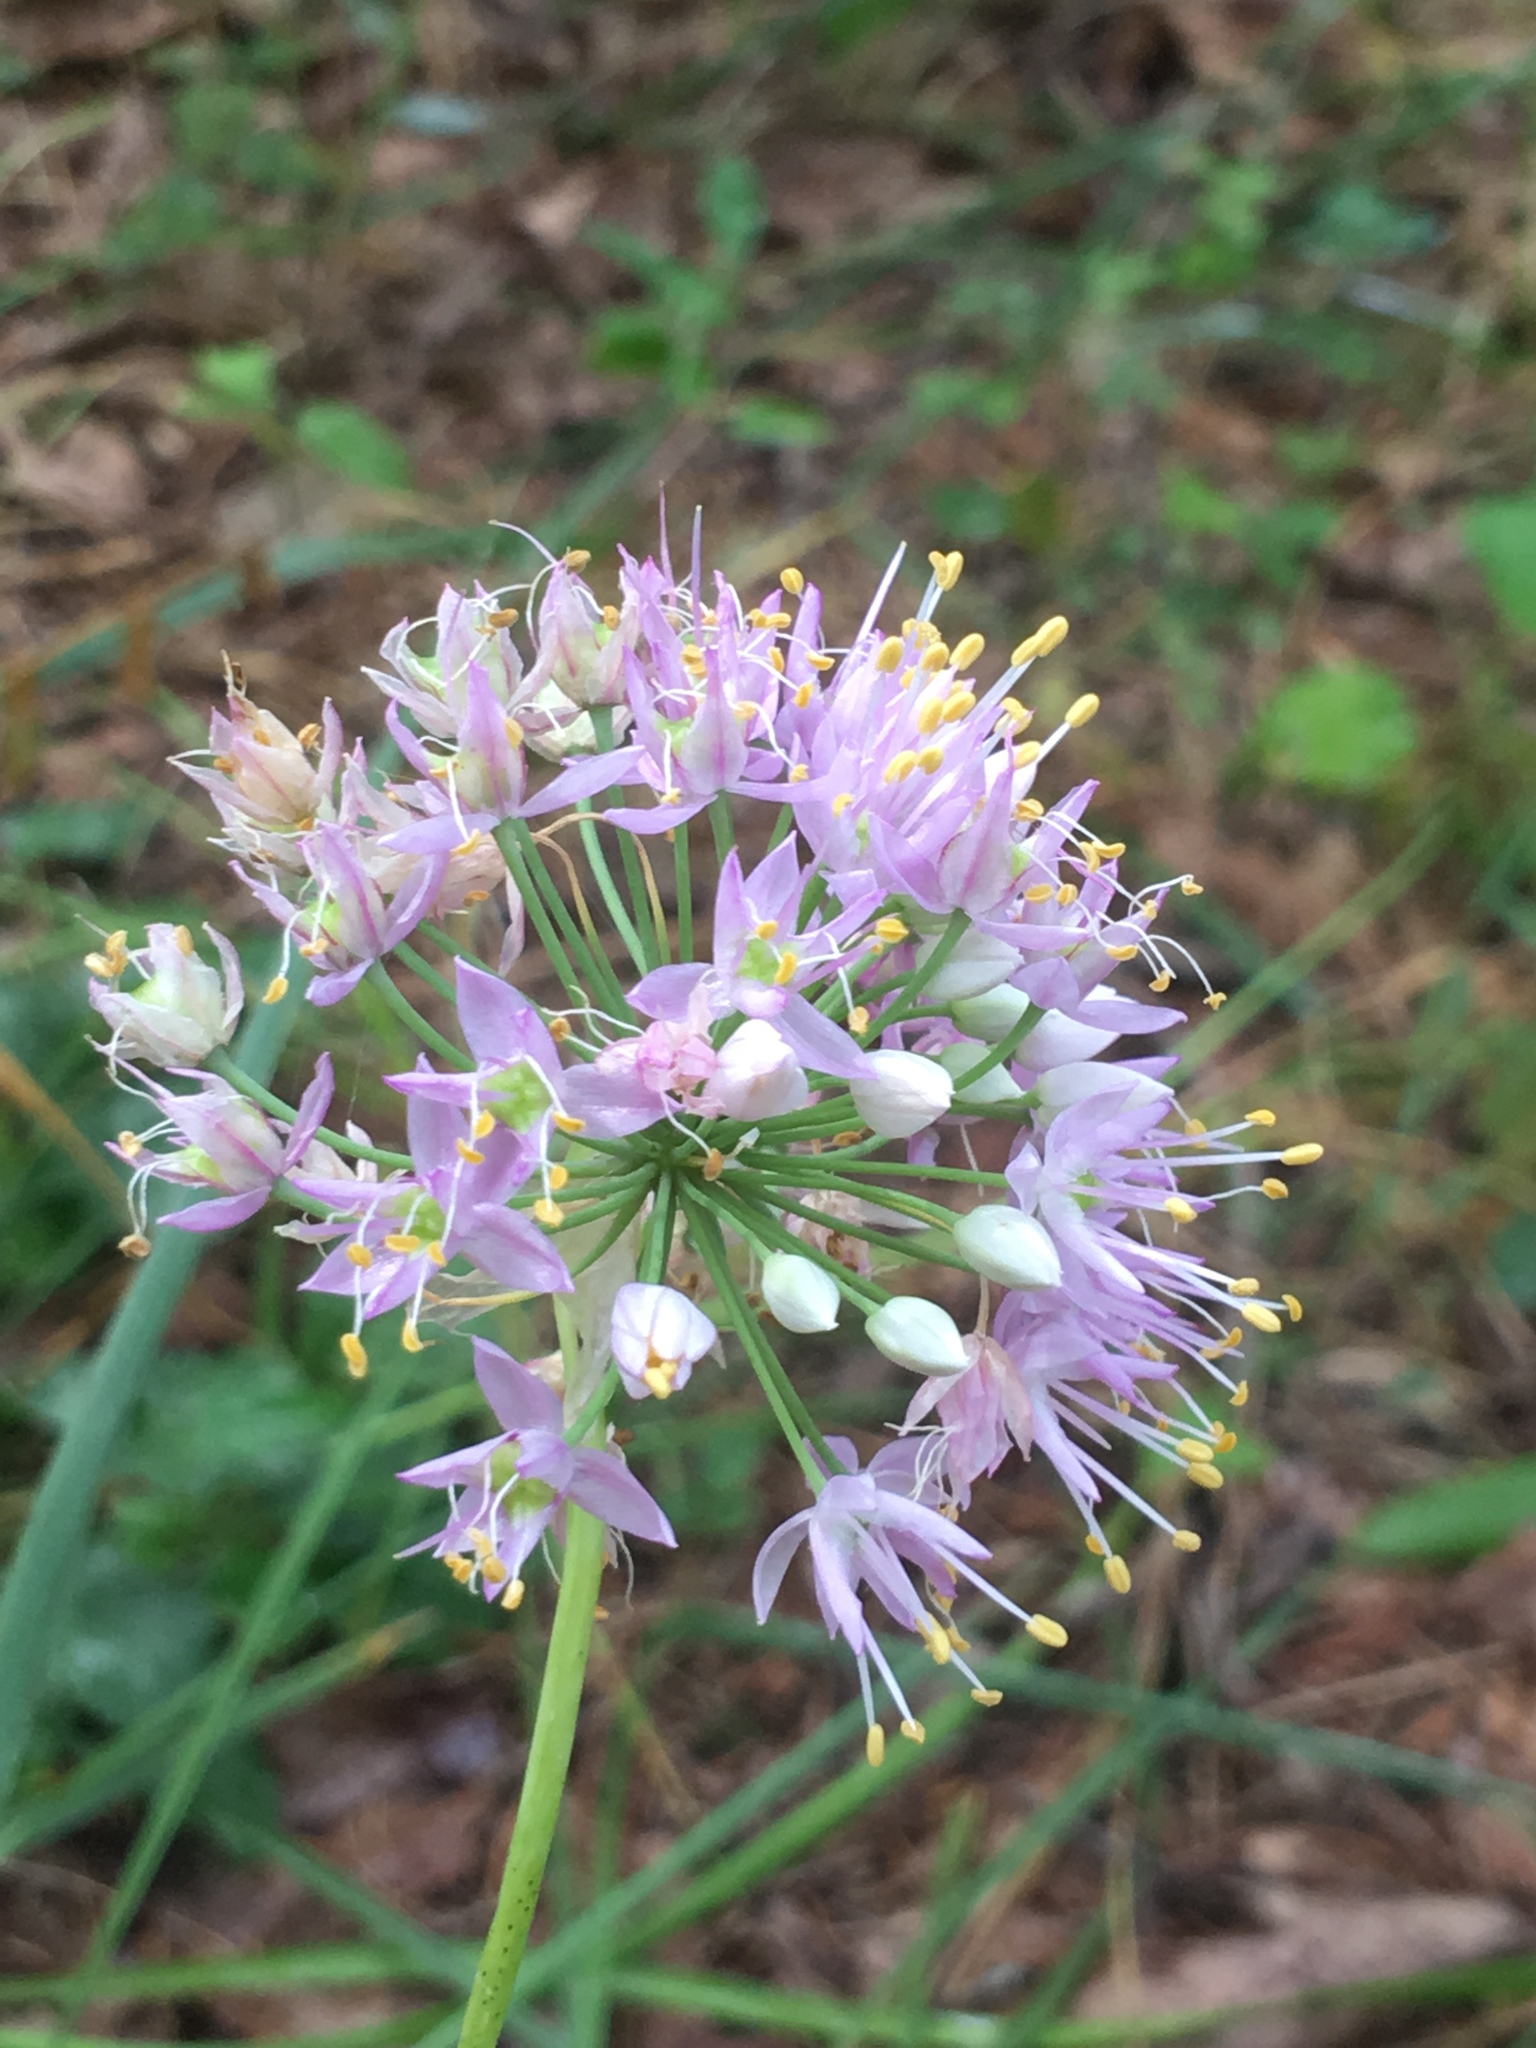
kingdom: Plantae
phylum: Tracheophyta
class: Liliopsida
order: Asparagales
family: Amaryllidaceae
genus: Allium
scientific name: Allium stellatum
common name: Autumn onion
